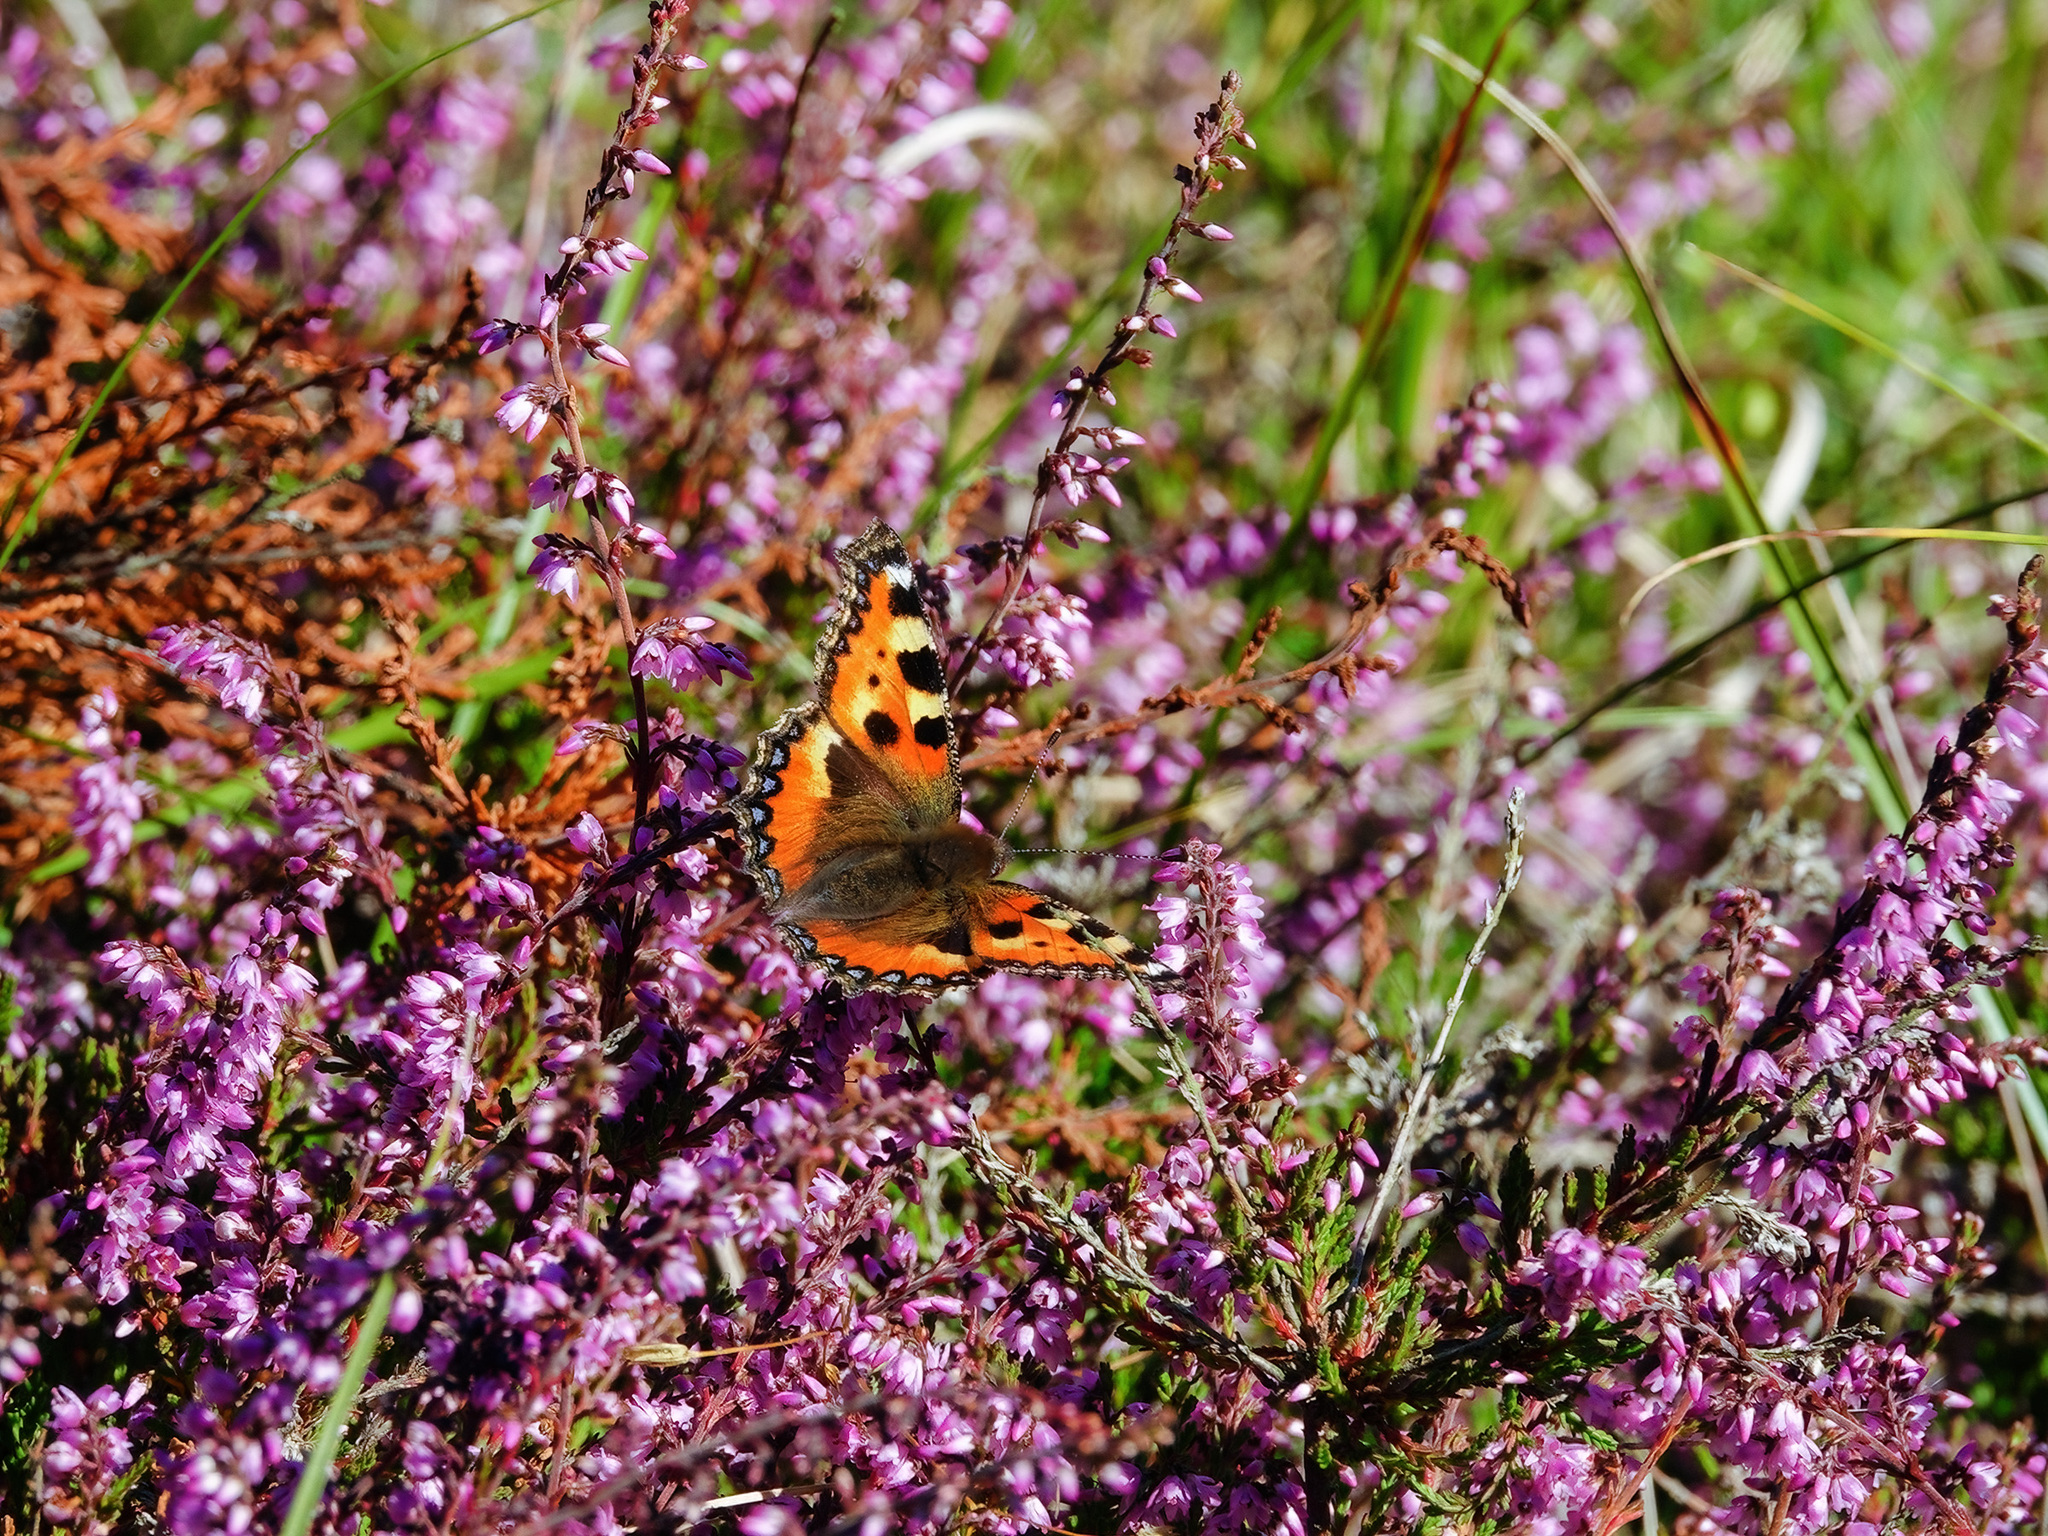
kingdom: Animalia
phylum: Arthropoda
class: Insecta
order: Lepidoptera
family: Nymphalidae
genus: Aglais
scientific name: Aglais urticae
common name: Small tortoiseshell
